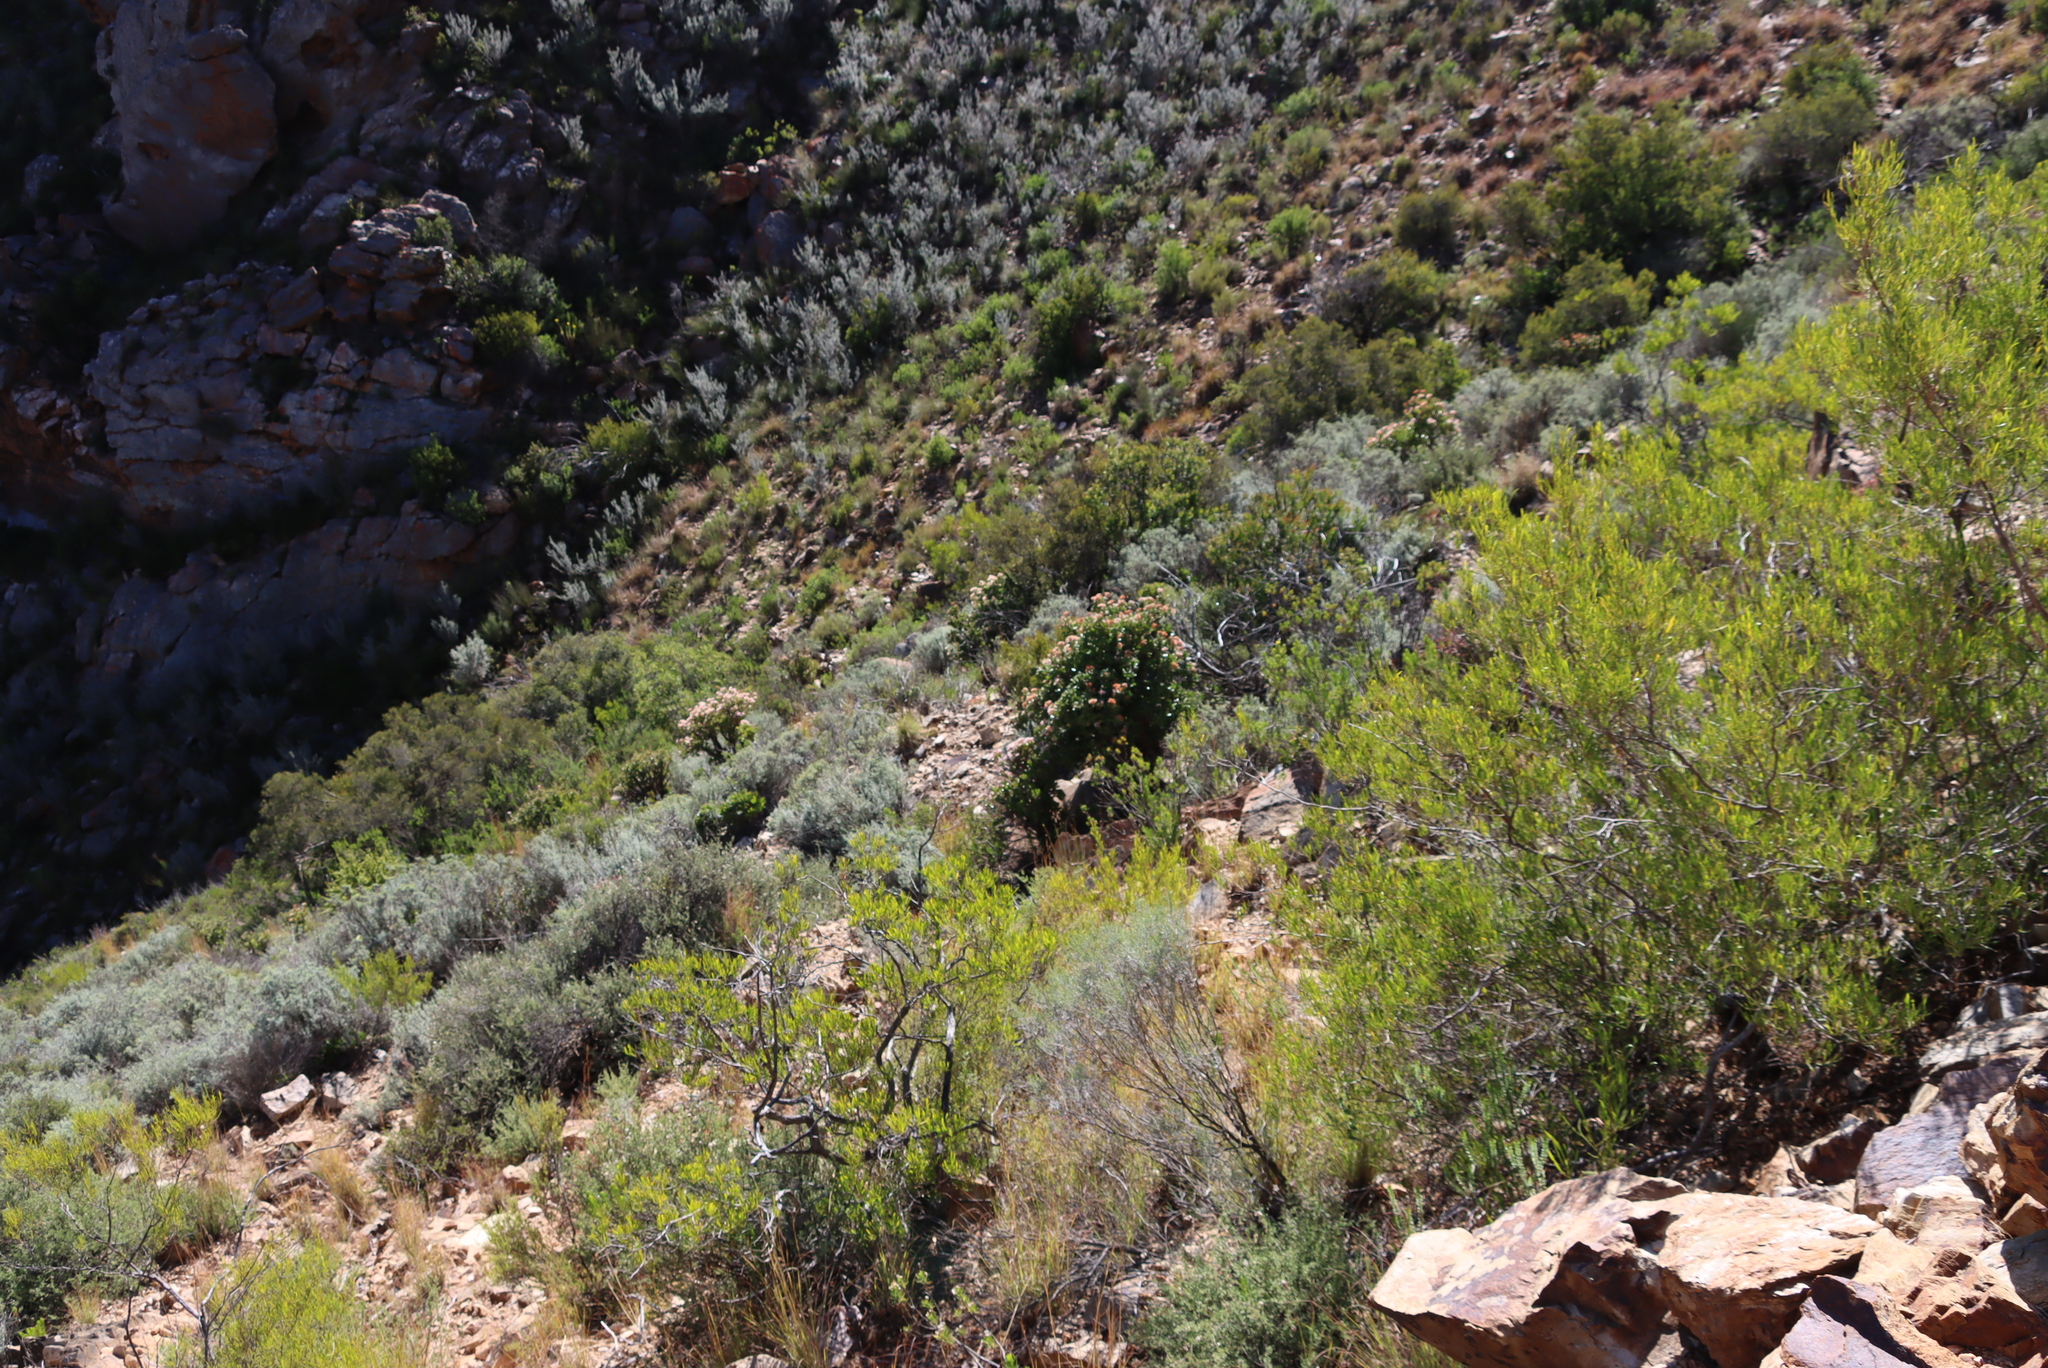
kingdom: Plantae
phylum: Tracheophyta
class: Magnoliopsida
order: Asterales
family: Asteraceae
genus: Dicerothamnus
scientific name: Dicerothamnus rhinocerotis
